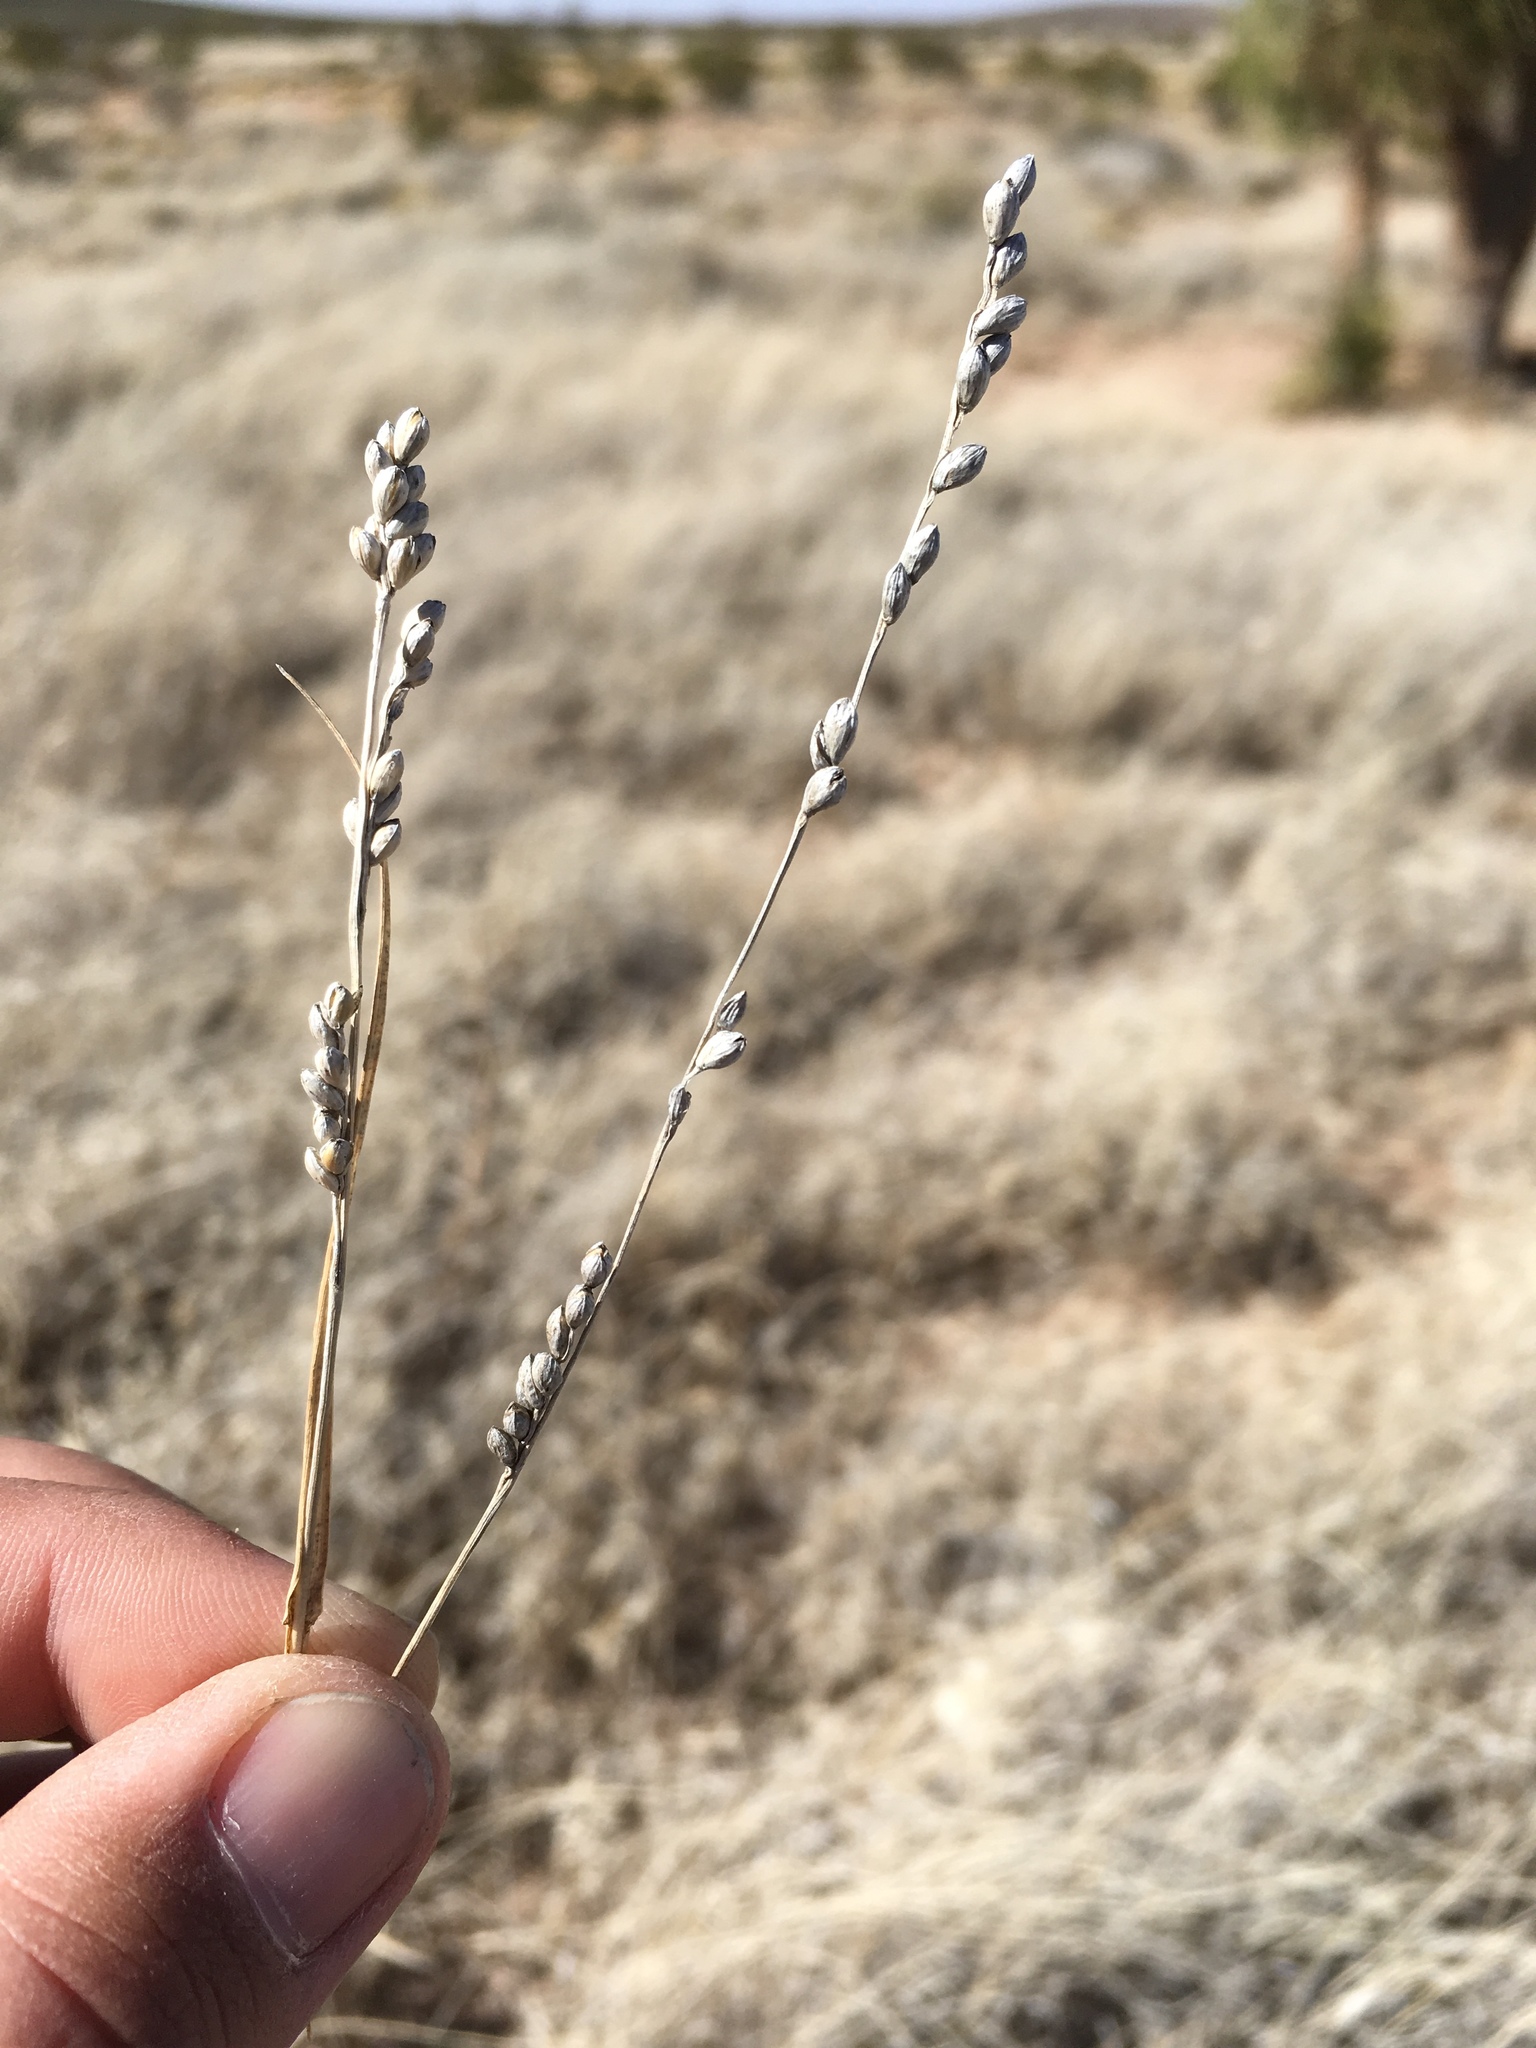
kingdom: Plantae
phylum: Tracheophyta
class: Liliopsida
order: Poales
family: Poaceae
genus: Hopia
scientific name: Hopia obtusa
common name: Vine-mesquite
